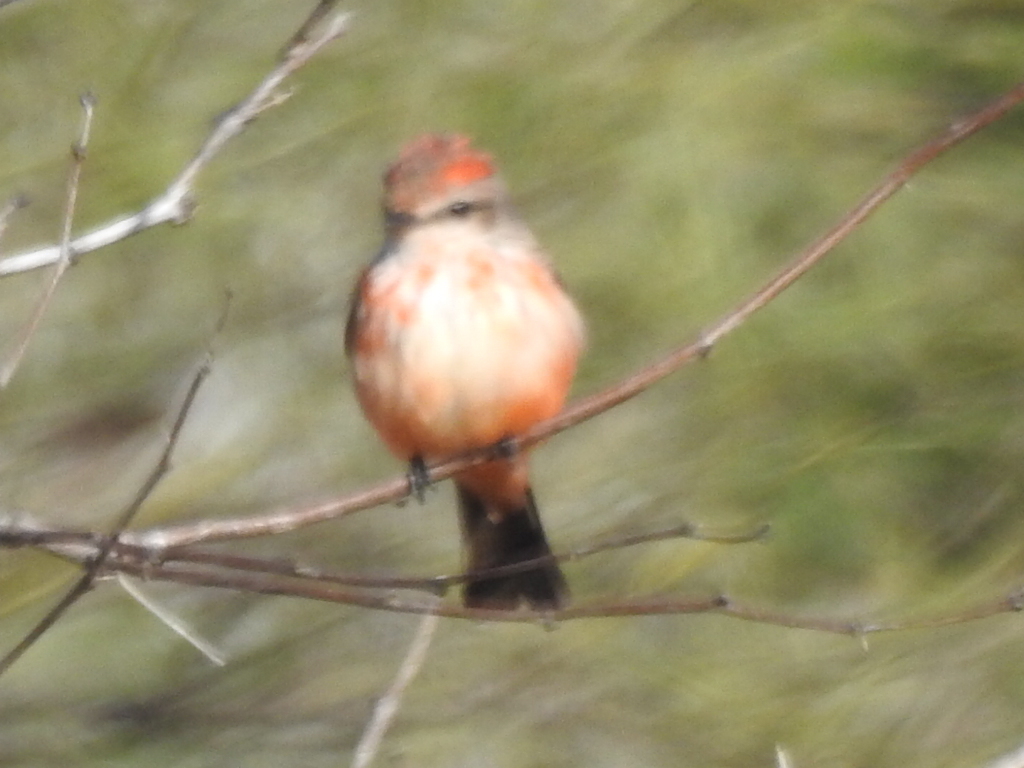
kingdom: Animalia
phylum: Chordata
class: Aves
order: Passeriformes
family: Tyrannidae
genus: Pyrocephalus
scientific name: Pyrocephalus rubinus
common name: Vermilion flycatcher
